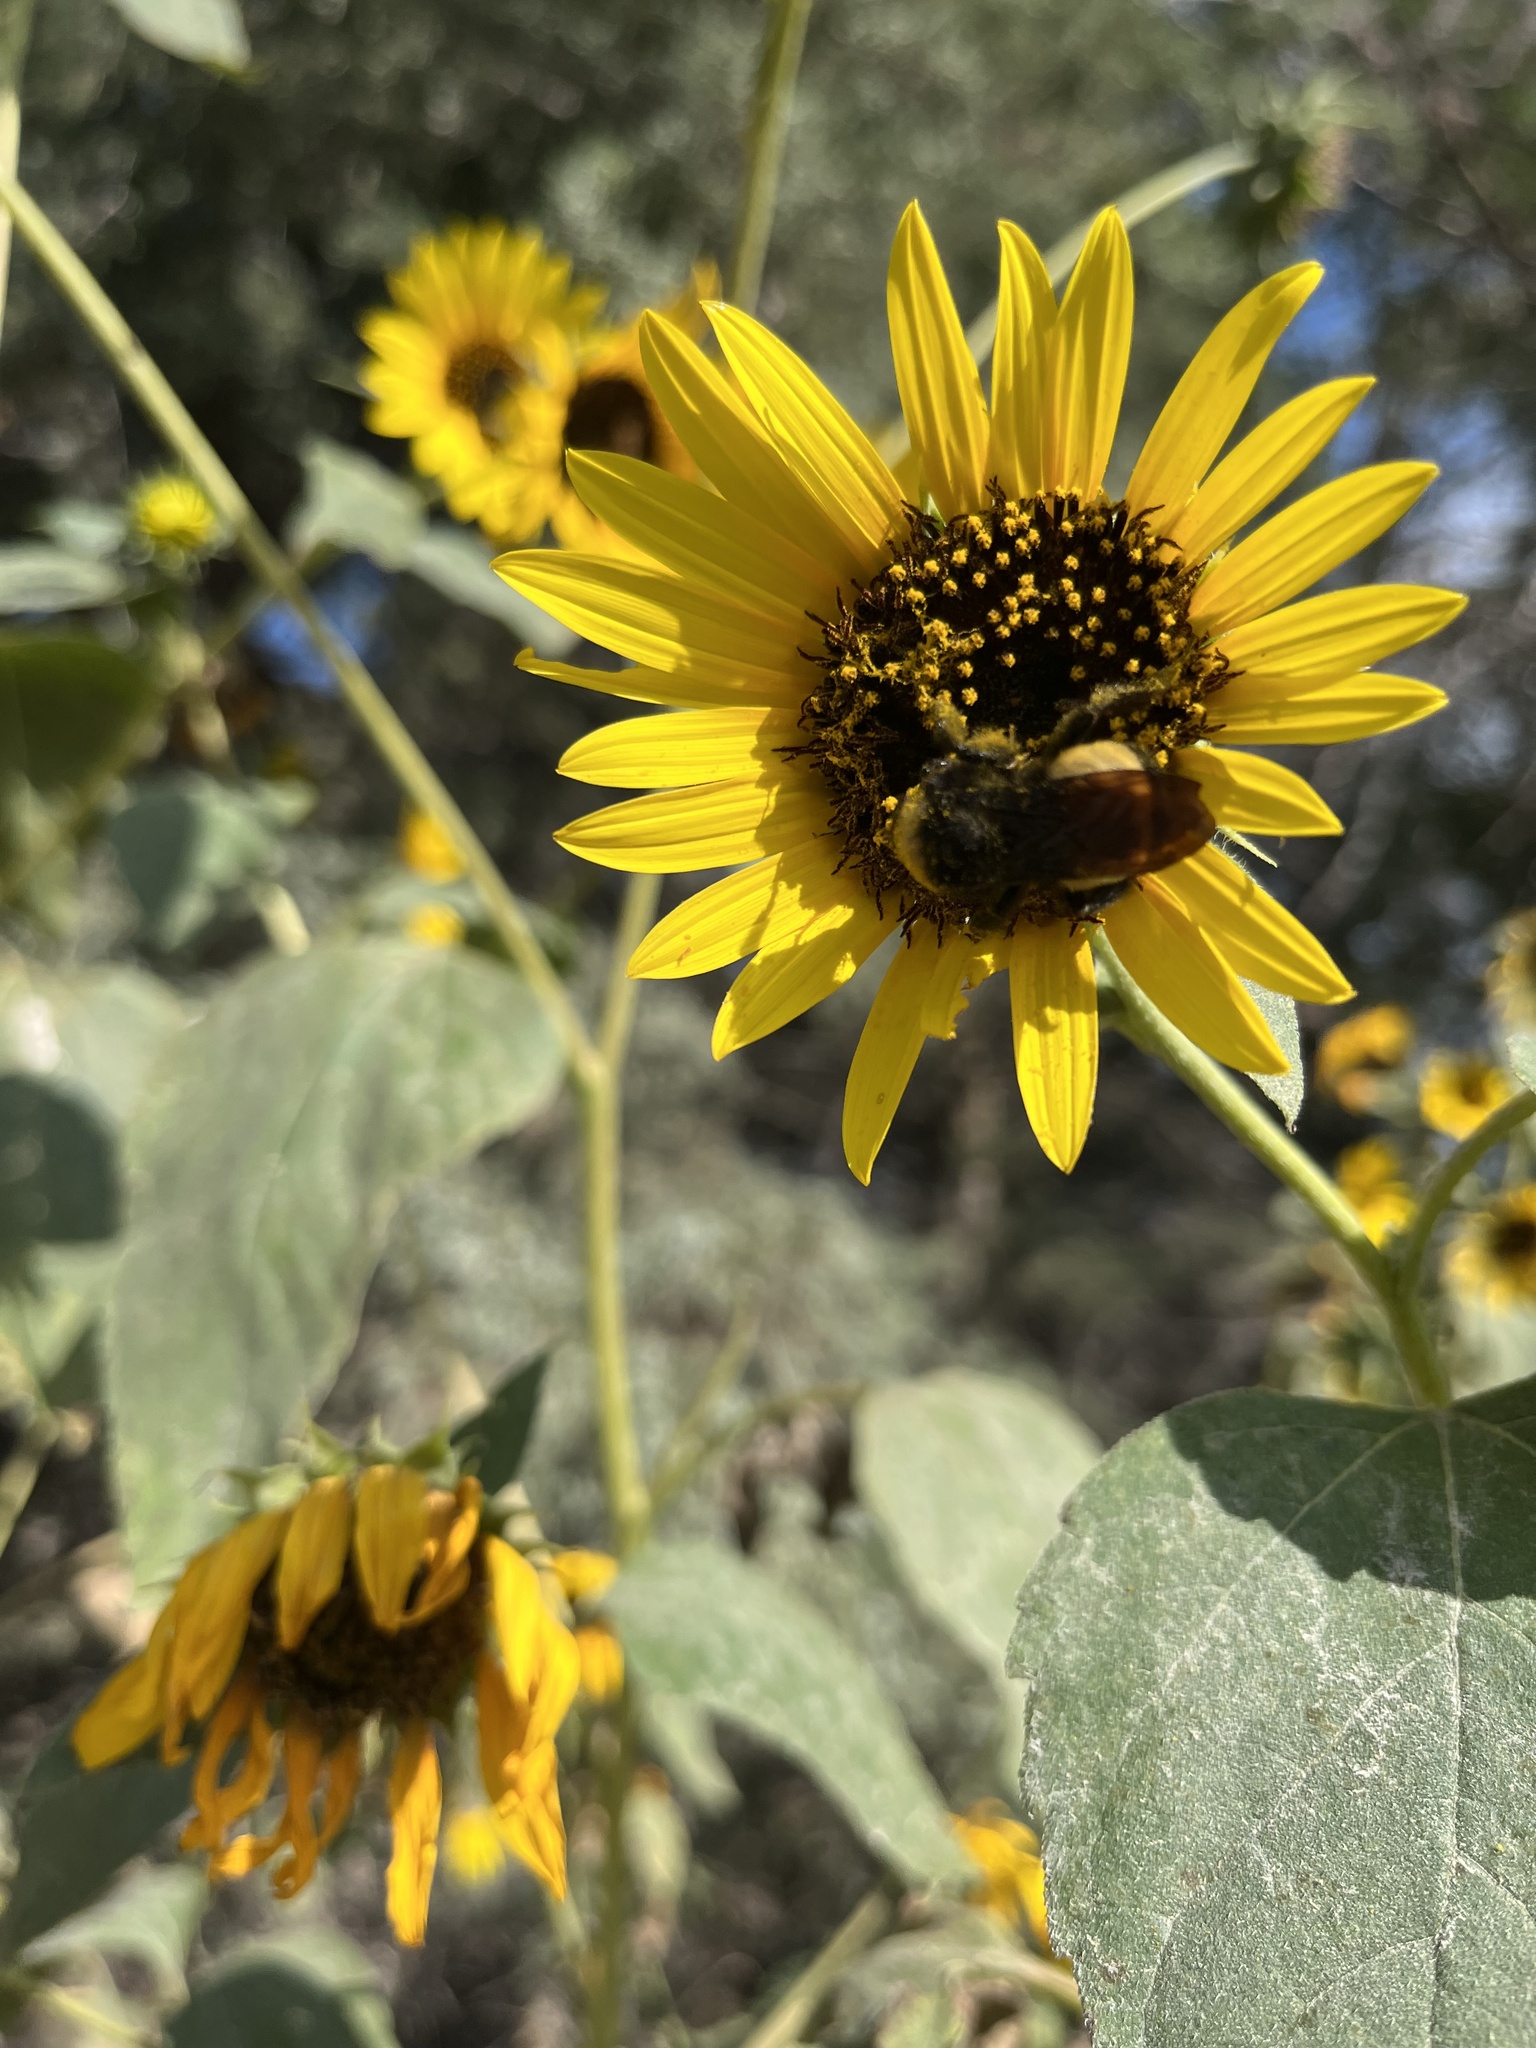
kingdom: Animalia
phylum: Arthropoda
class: Insecta
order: Hymenoptera
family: Apidae
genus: Bombus
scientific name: Bombus pensylvanicus
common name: Bumble bee
